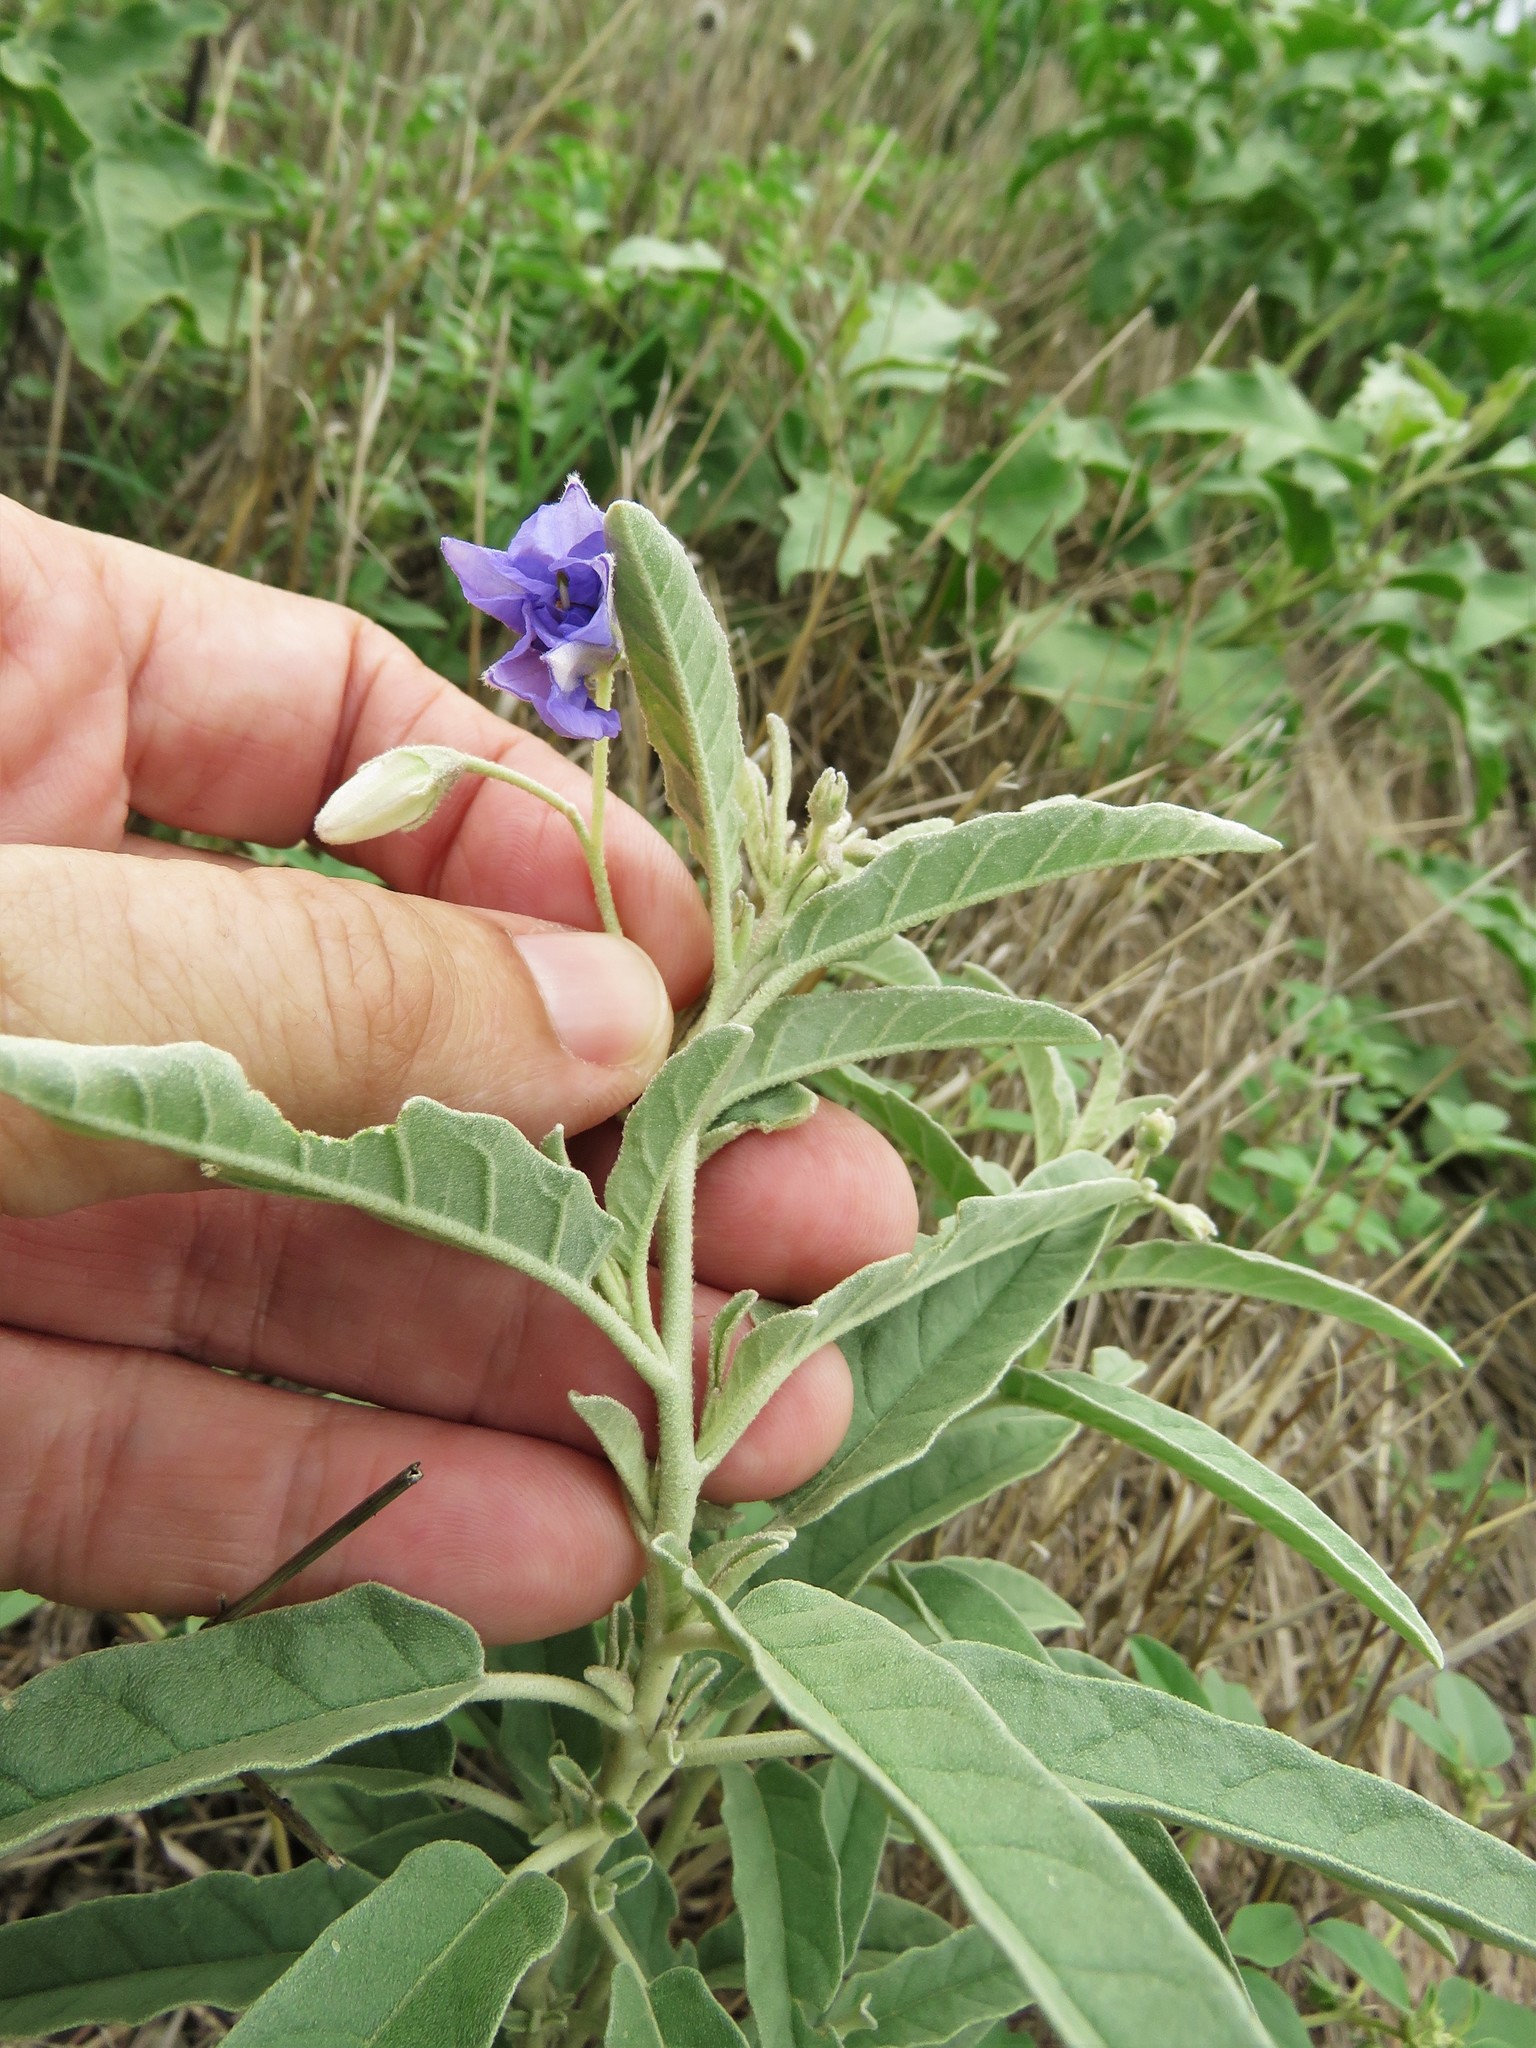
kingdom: Plantae
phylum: Tracheophyta
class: Magnoliopsida
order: Solanales
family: Solanaceae
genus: Solanum
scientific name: Solanum elaeagnifolium
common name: Silverleaf nightshade
